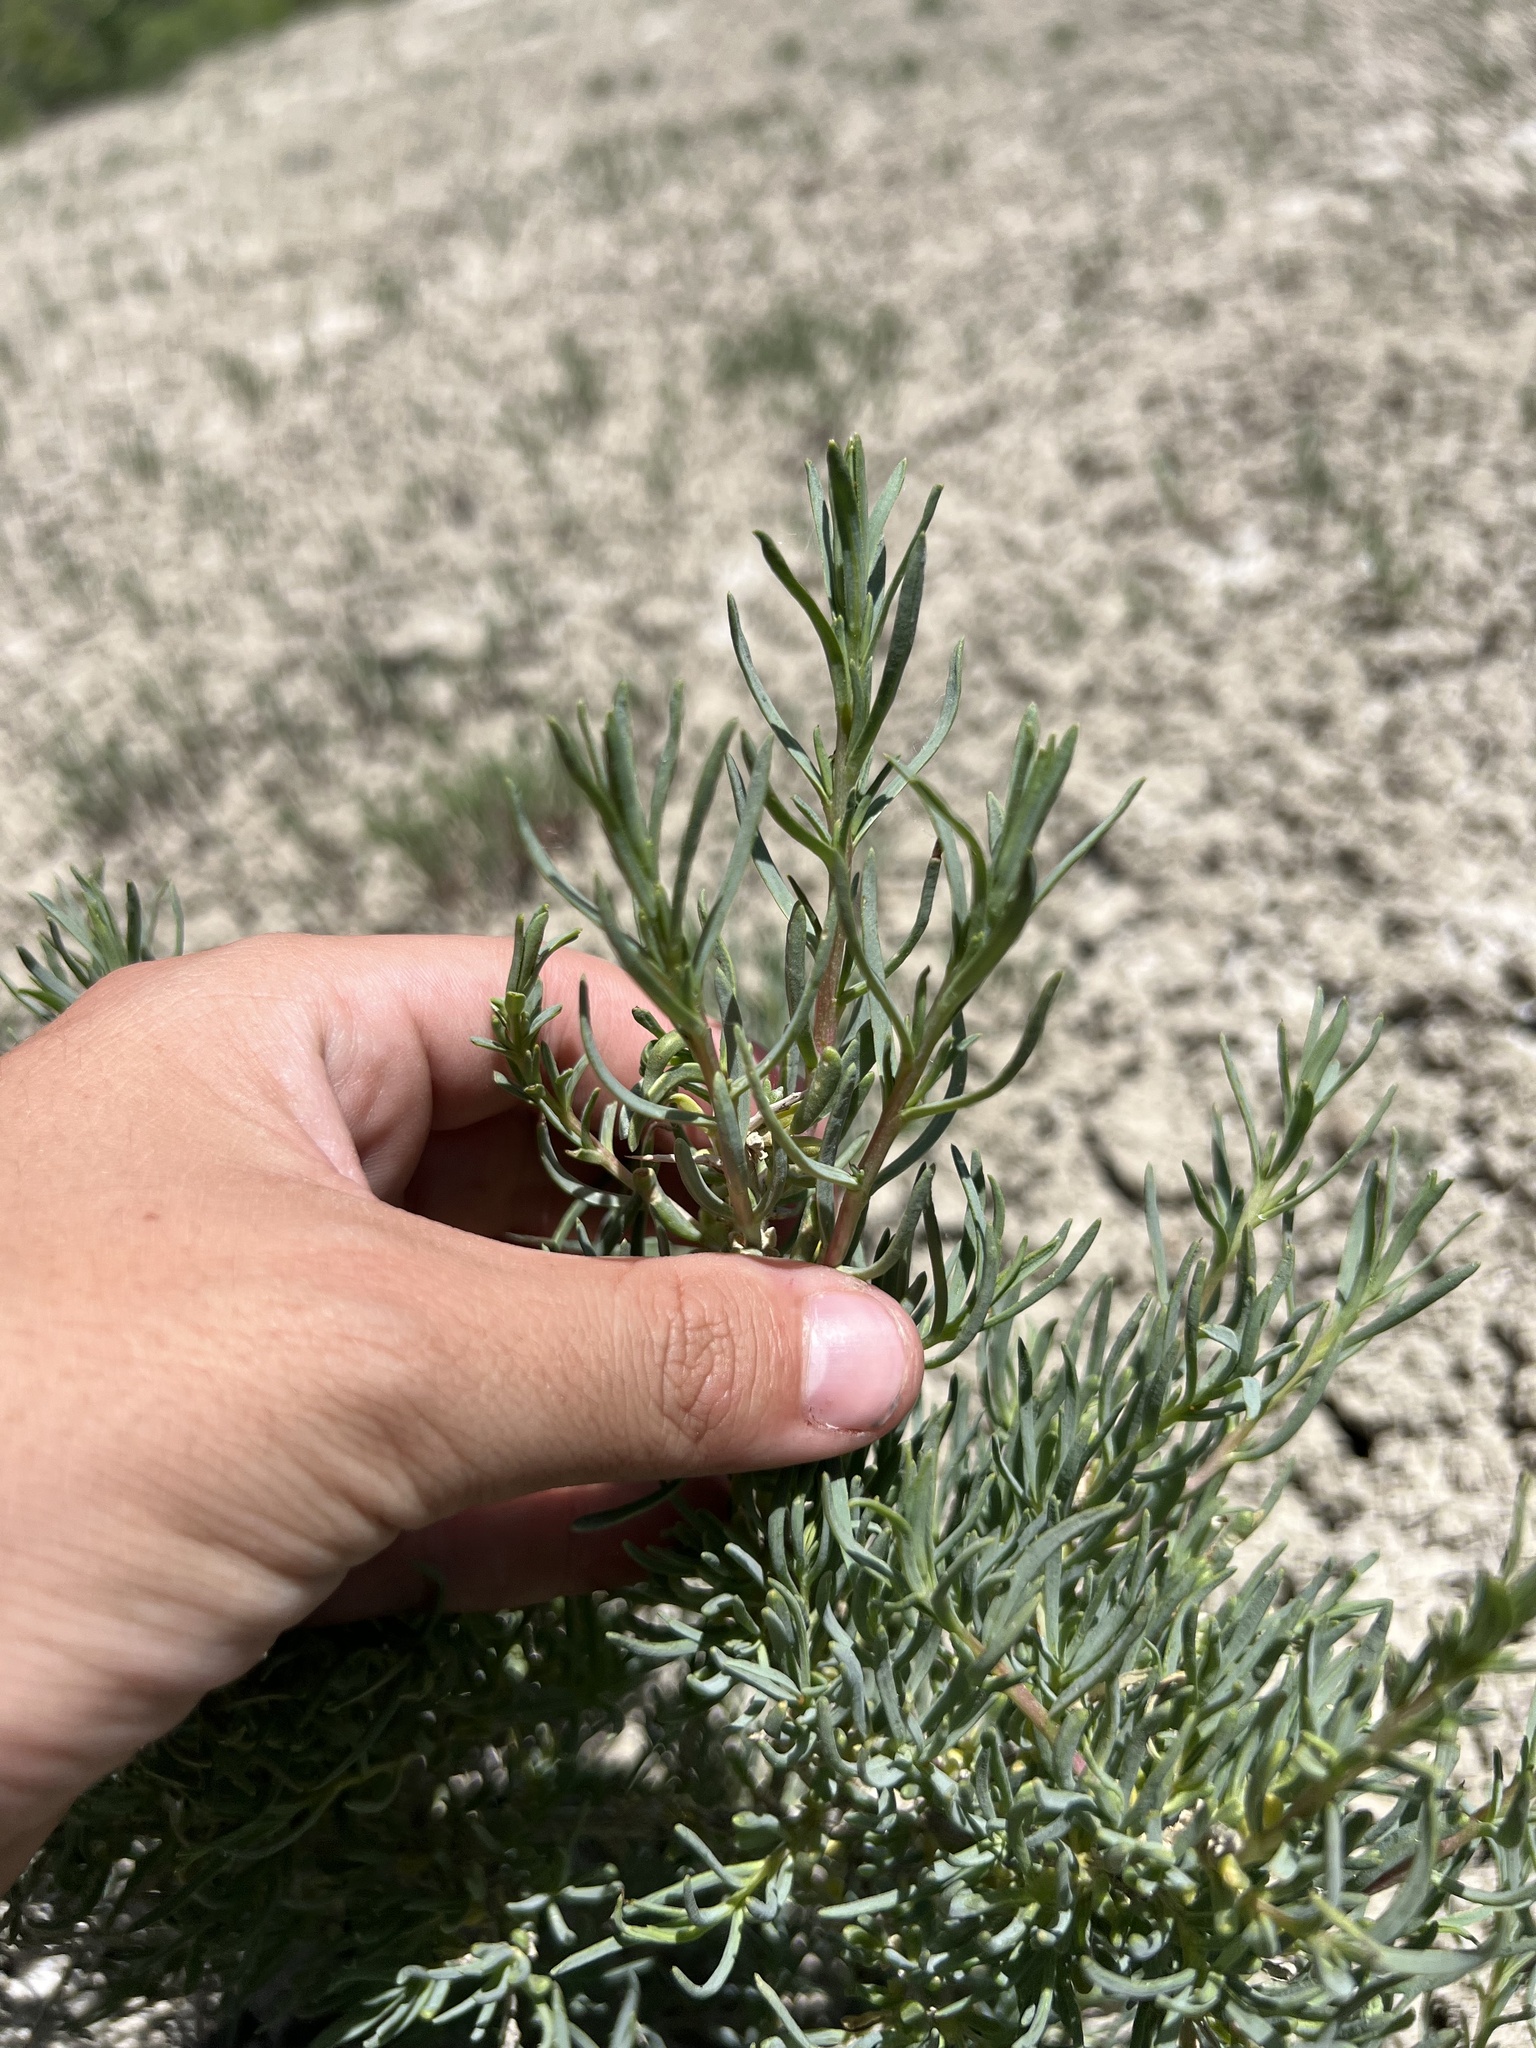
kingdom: Plantae
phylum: Tracheophyta
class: Magnoliopsida
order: Caryophyllales
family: Sarcobataceae
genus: Sarcobatus
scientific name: Sarcobatus vermiculatus
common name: Greasewood
